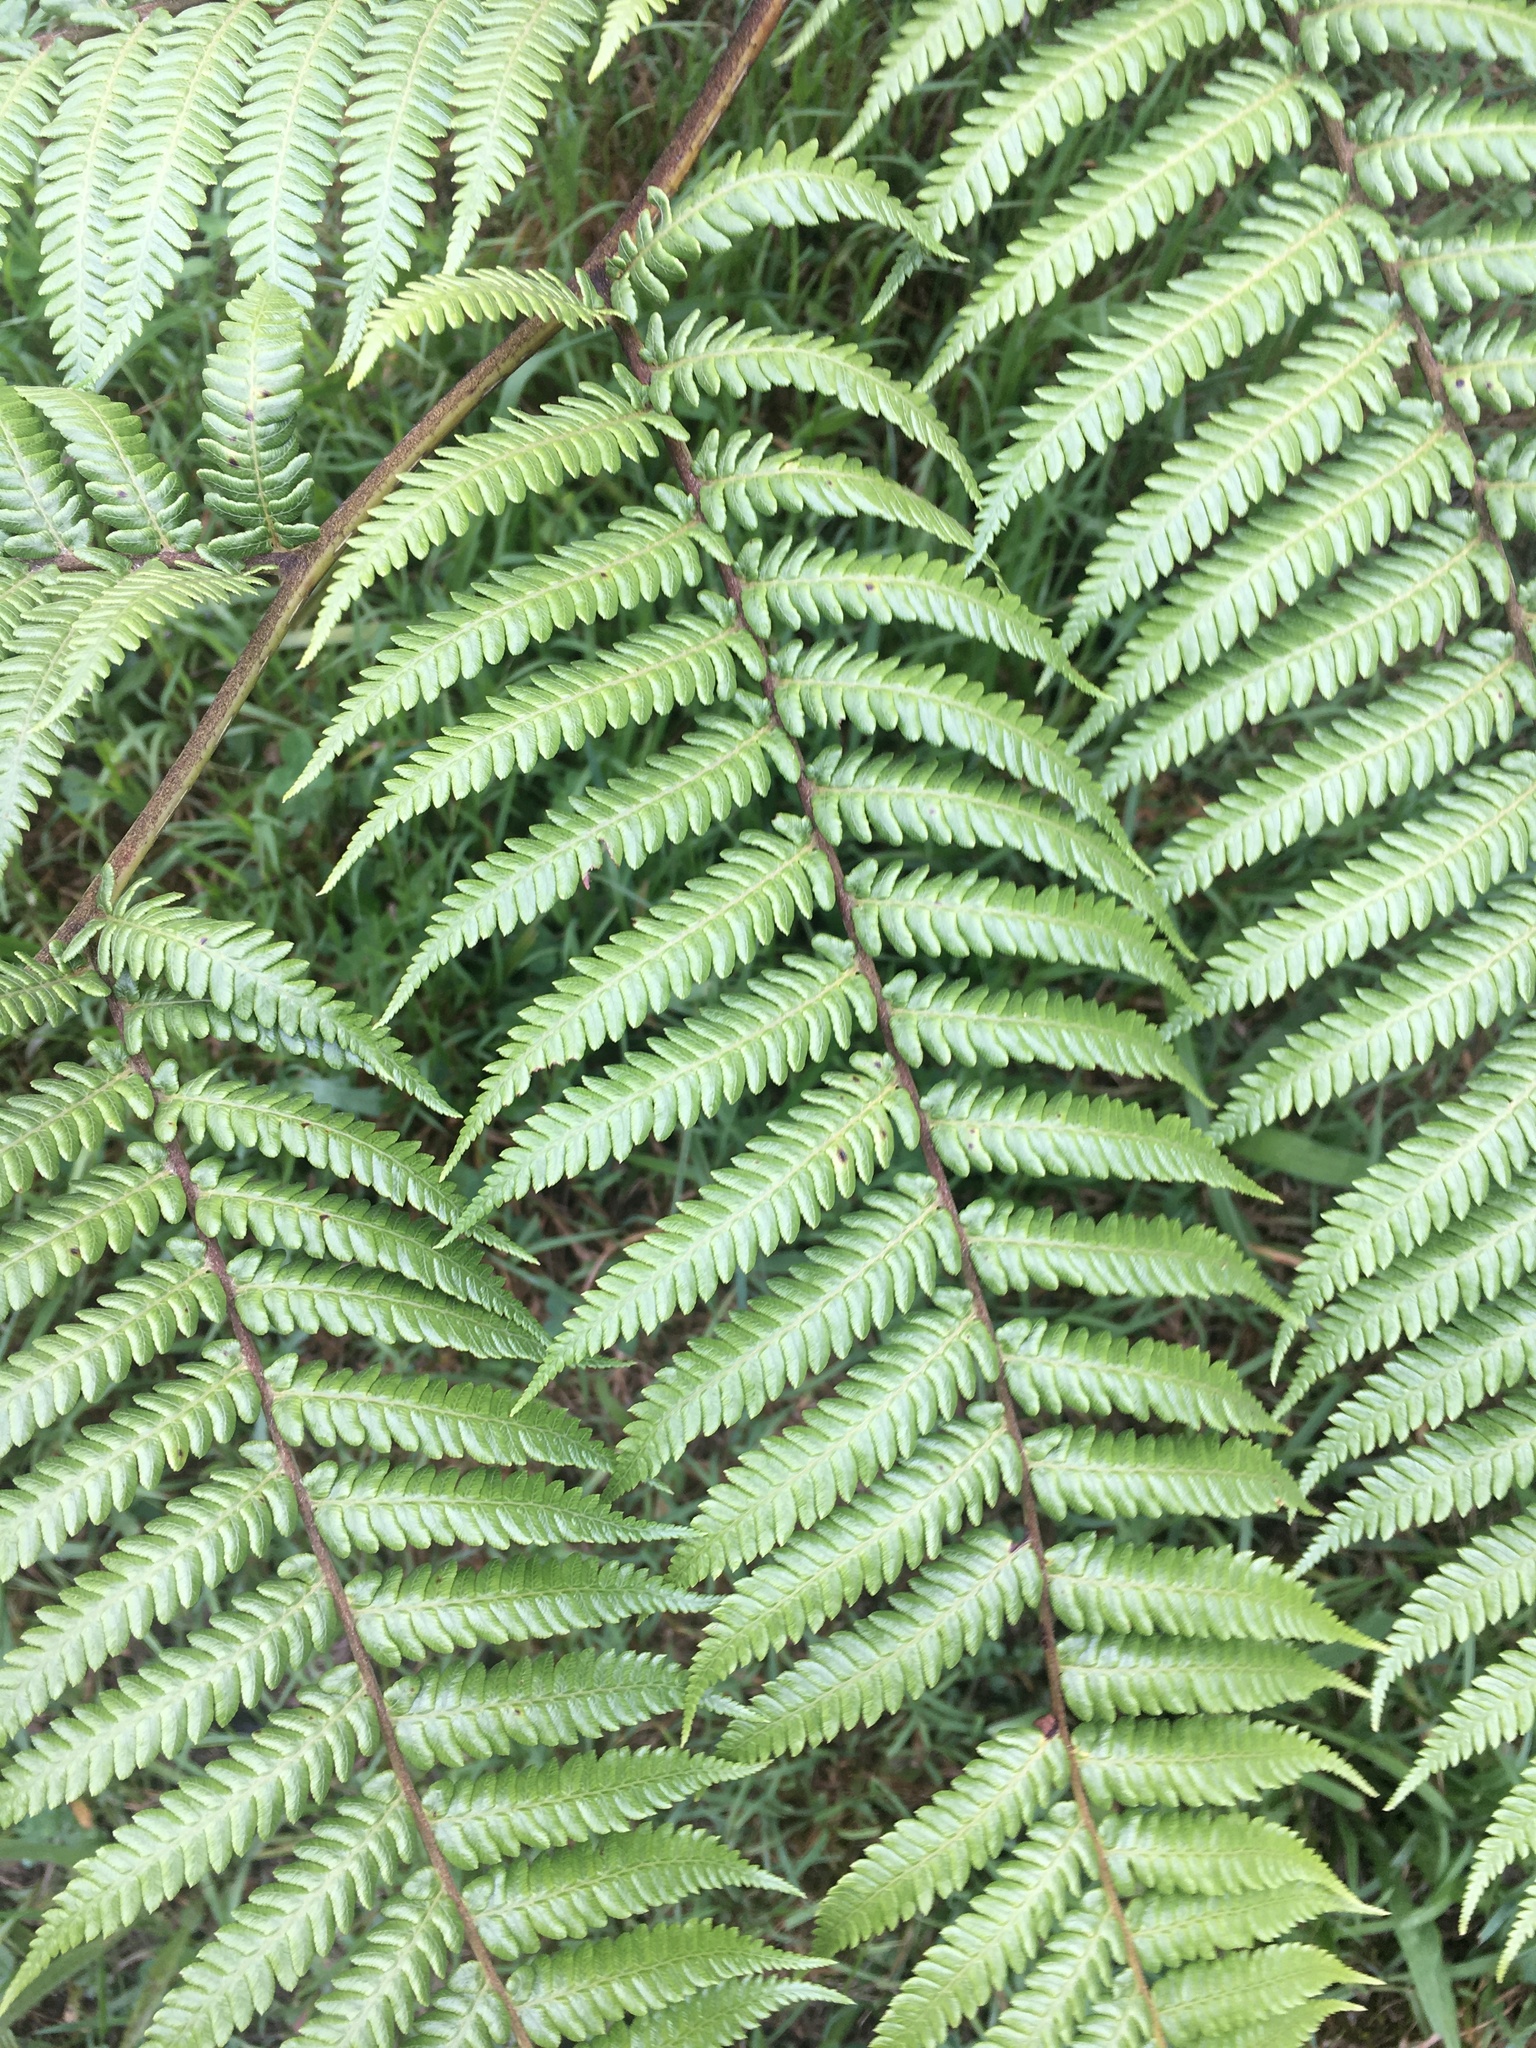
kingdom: Plantae
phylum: Tracheophyta
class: Polypodiopsida
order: Cyatheales
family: Cyatheaceae
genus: Sphaeropteris
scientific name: Sphaeropteris medullaris
